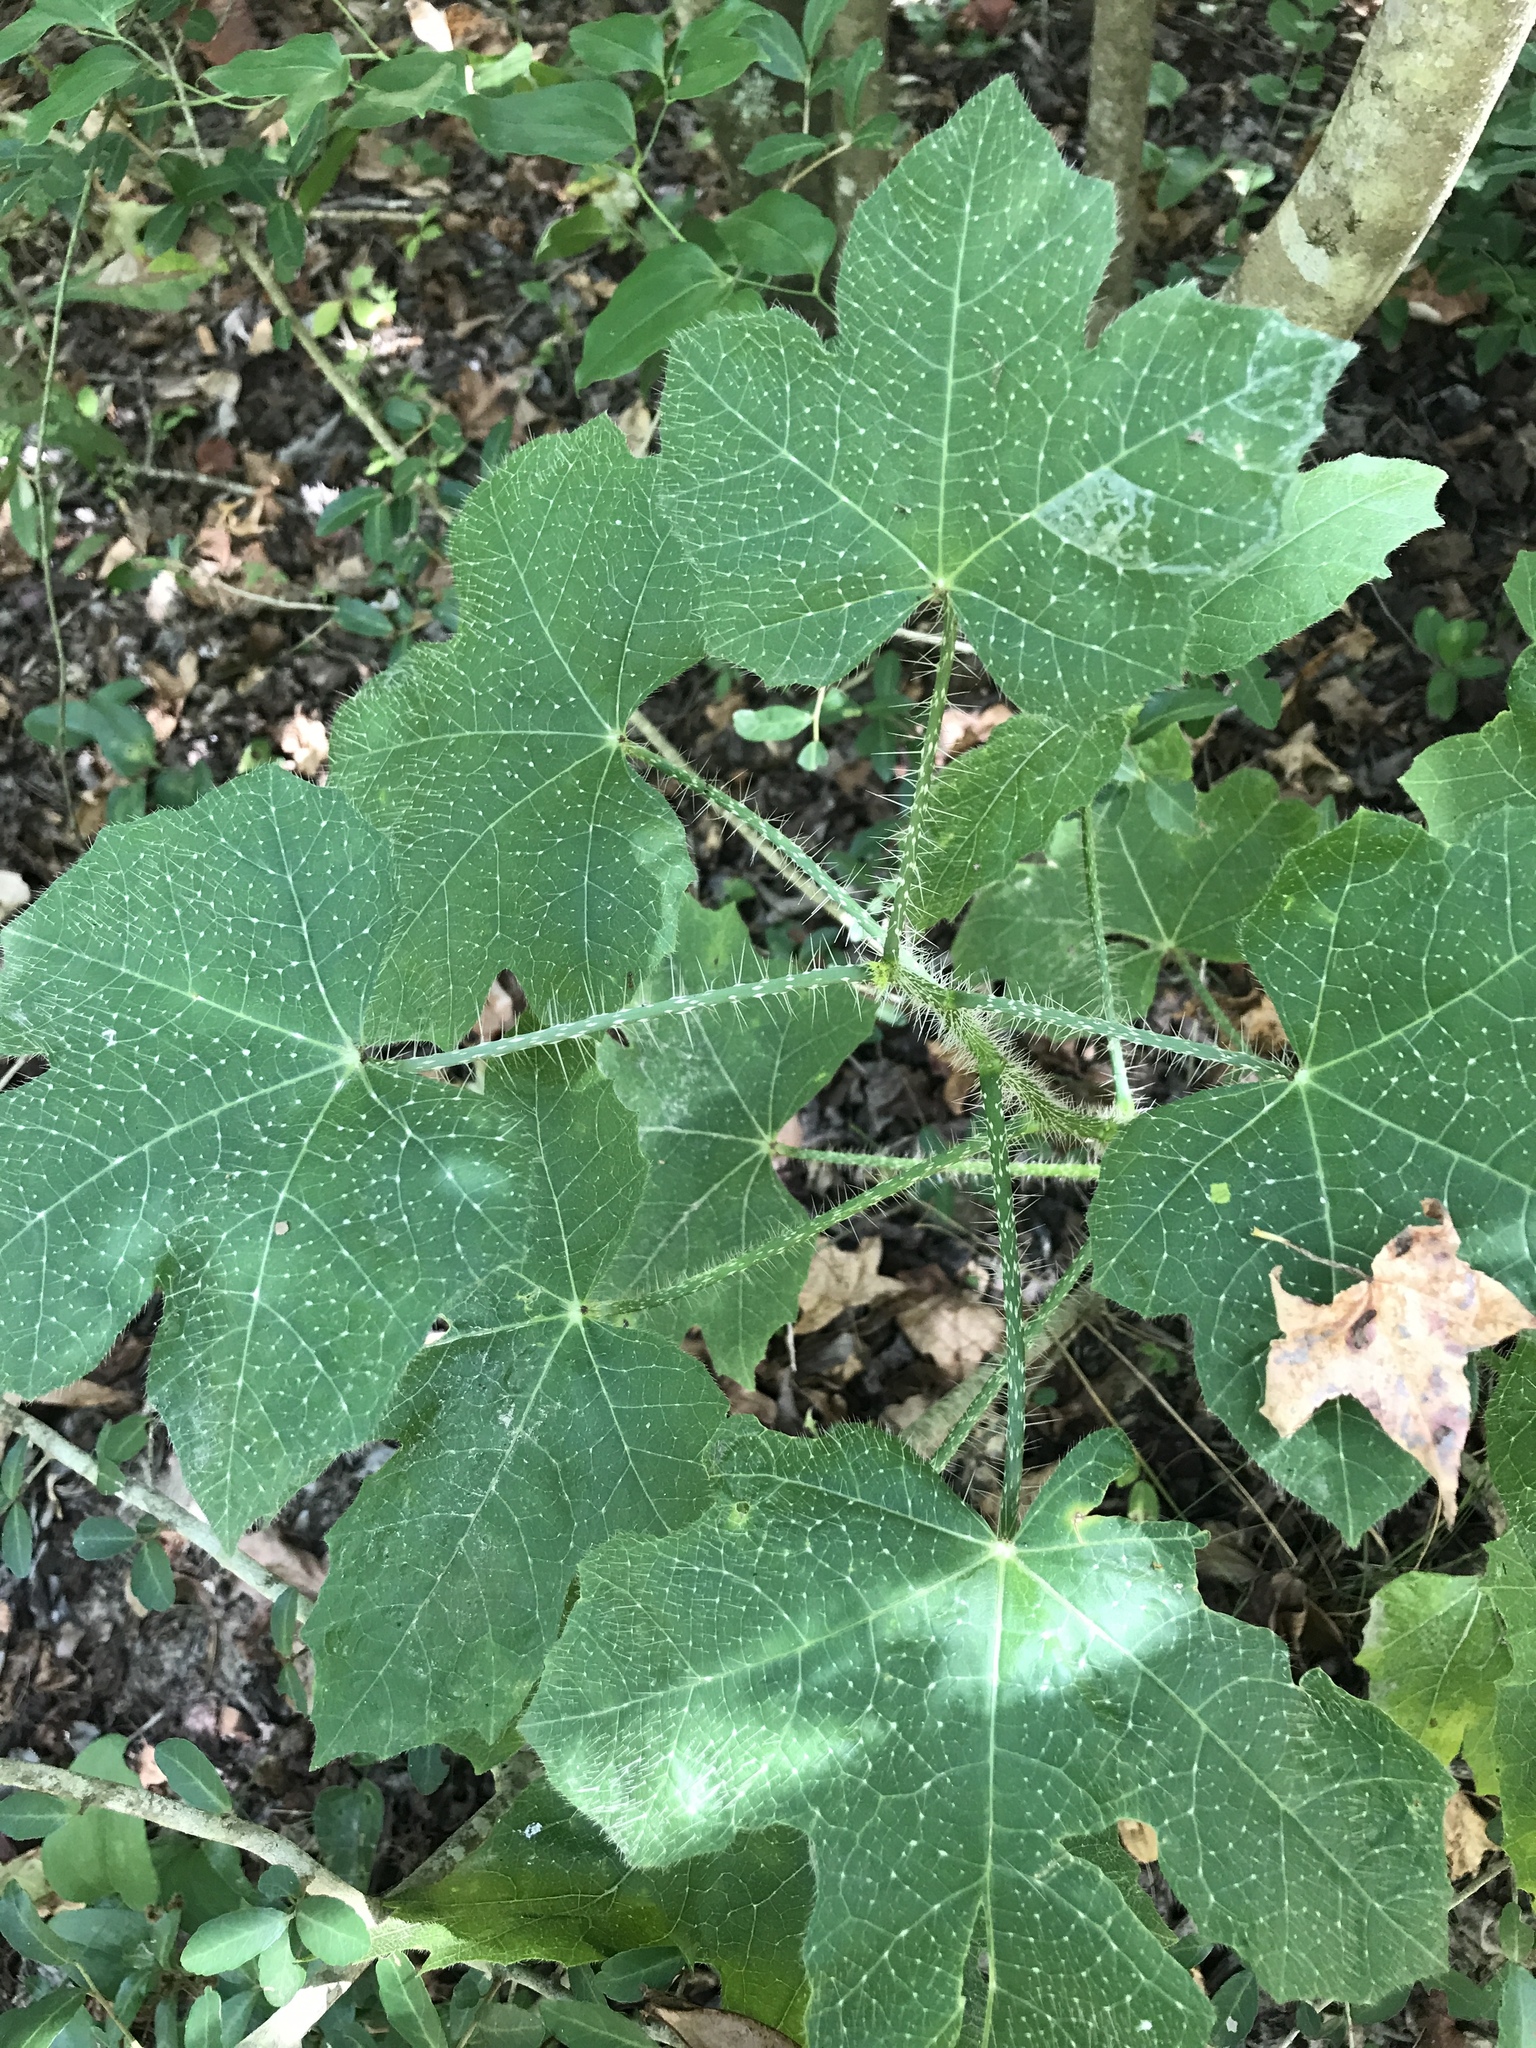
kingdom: Plantae
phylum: Tracheophyta
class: Magnoliopsida
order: Malpighiales
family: Euphorbiaceae
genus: Cnidoscolus
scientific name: Cnidoscolus texanus
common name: Texas bull-nettle
